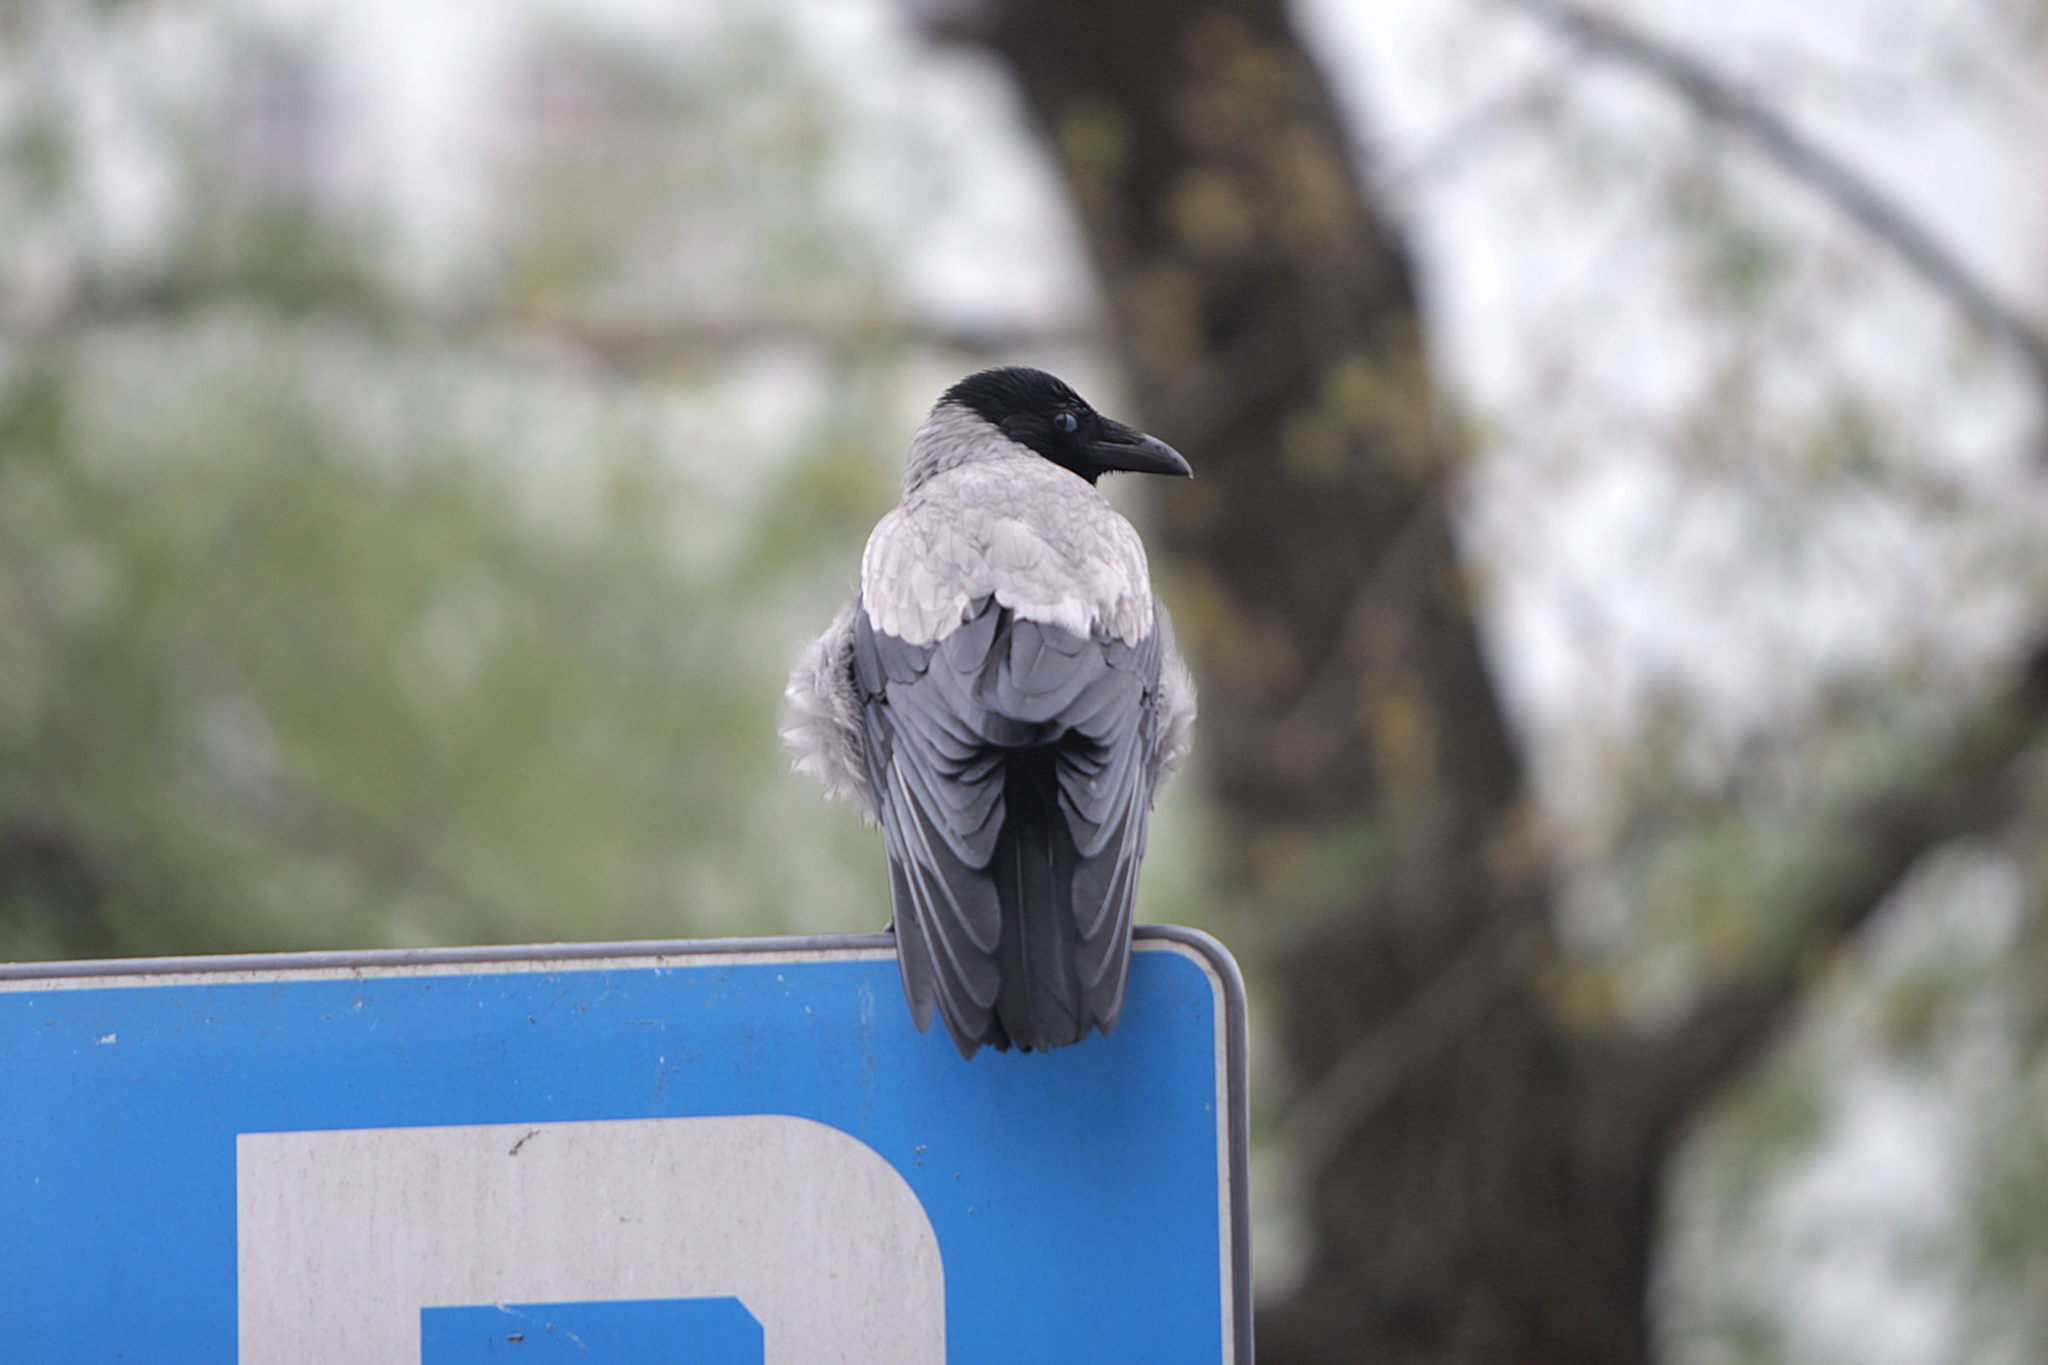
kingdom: Animalia
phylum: Chordata
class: Aves
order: Passeriformes
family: Corvidae
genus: Corvus
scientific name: Corvus cornix
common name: Hooded crow
